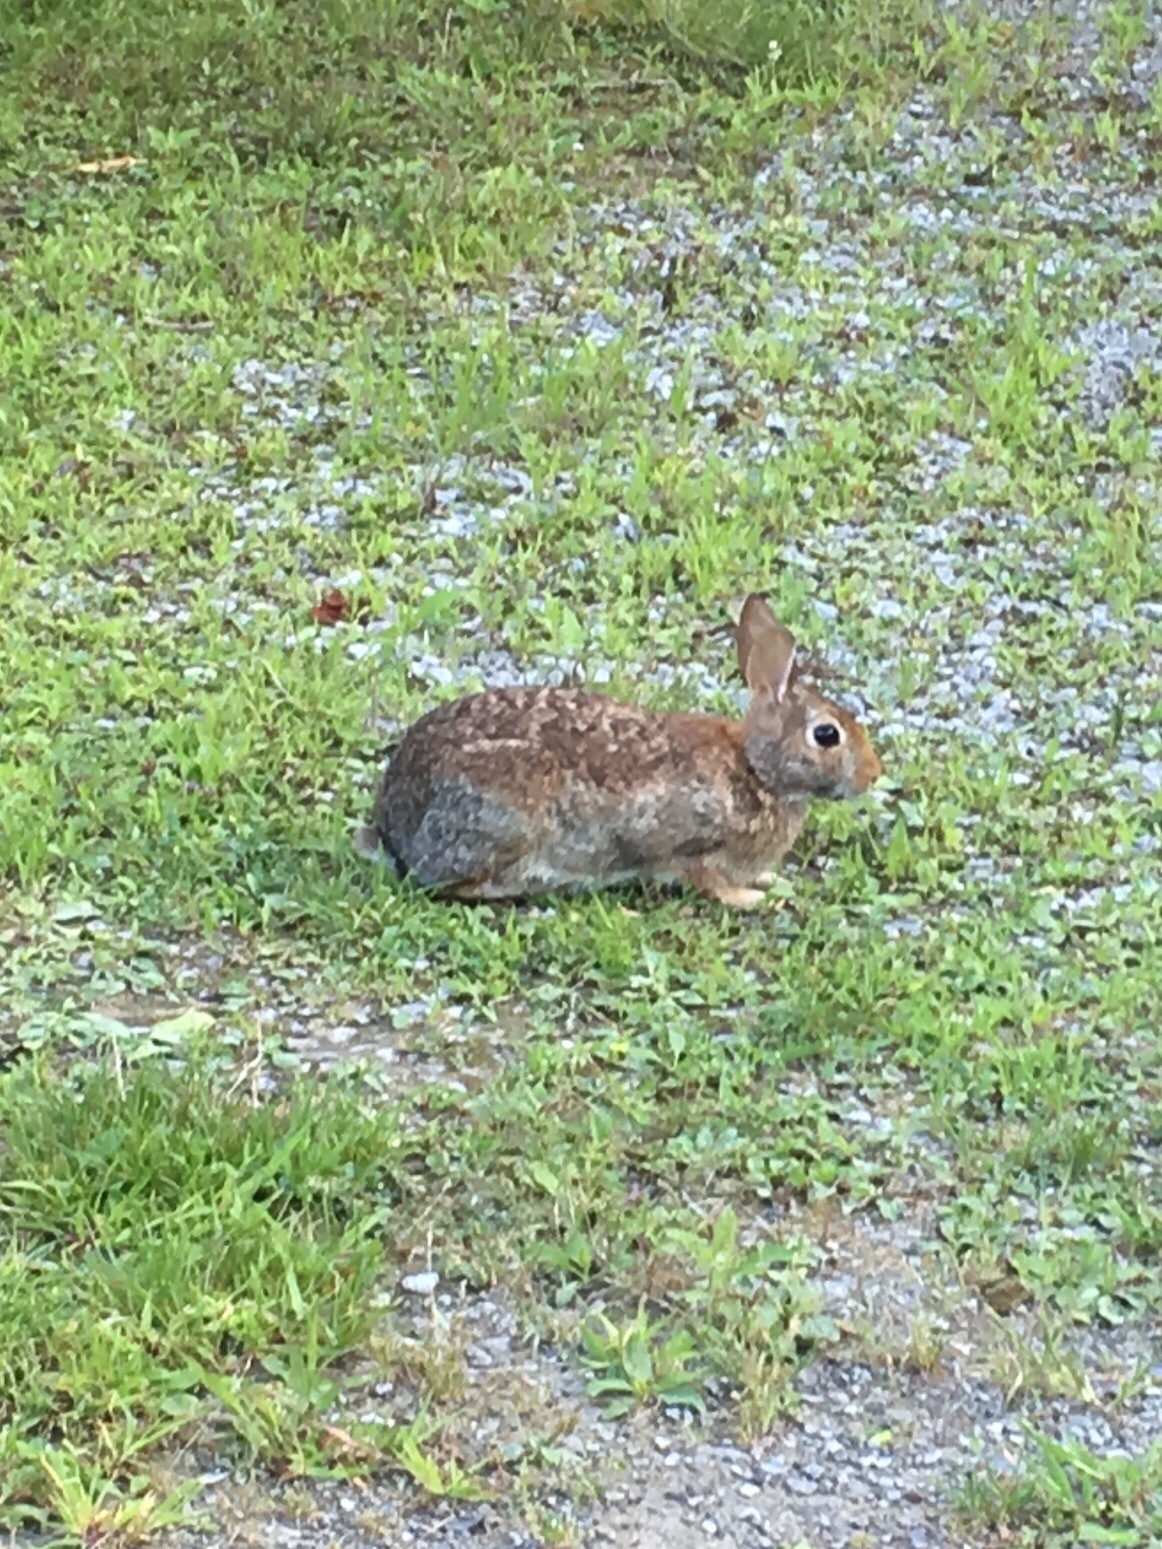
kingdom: Animalia
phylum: Chordata
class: Mammalia
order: Lagomorpha
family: Leporidae
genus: Sylvilagus
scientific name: Sylvilagus floridanus
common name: Eastern cottontail
